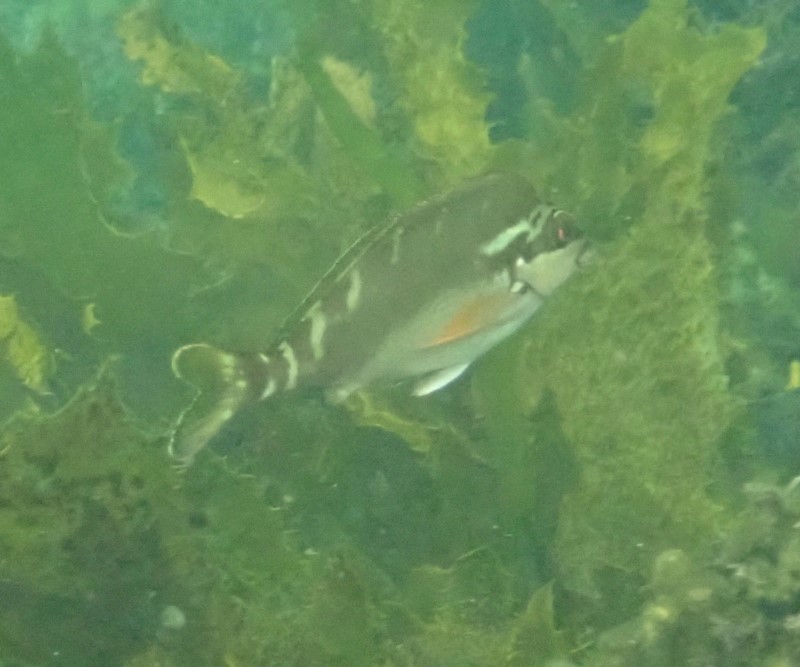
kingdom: Animalia
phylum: Chordata
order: Perciformes
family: Latridae
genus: Morwong
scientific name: Morwong fuscus
